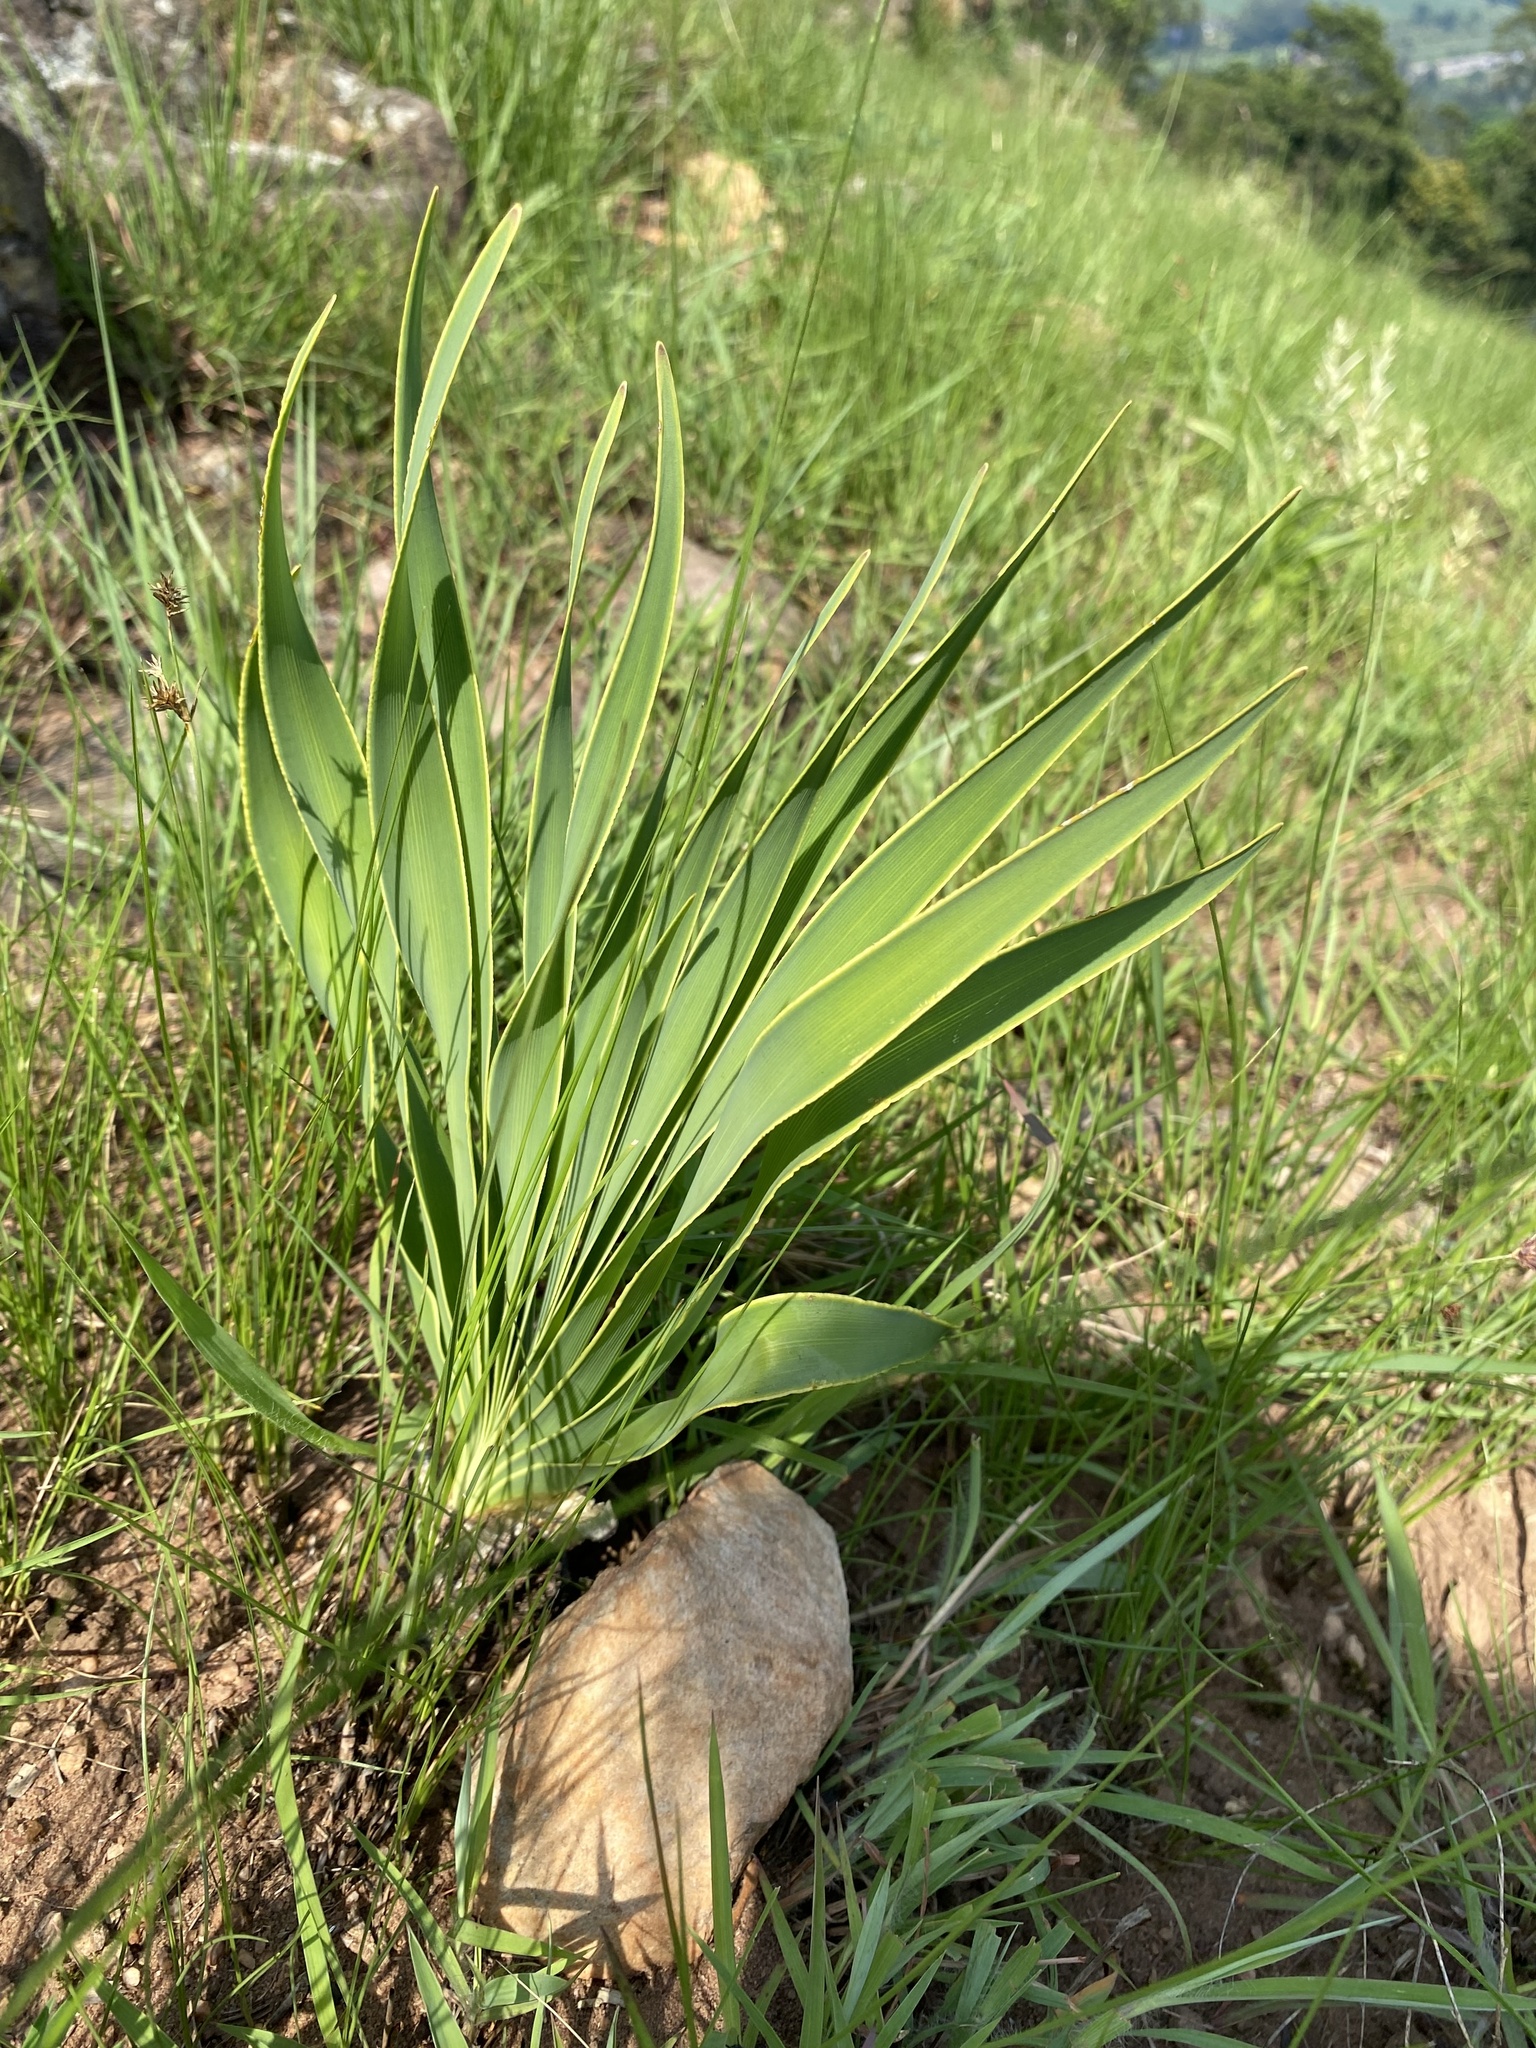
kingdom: Plantae
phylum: Tracheophyta
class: Liliopsida
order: Asparagales
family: Amaryllidaceae
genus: Boophone
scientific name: Boophone disticha
